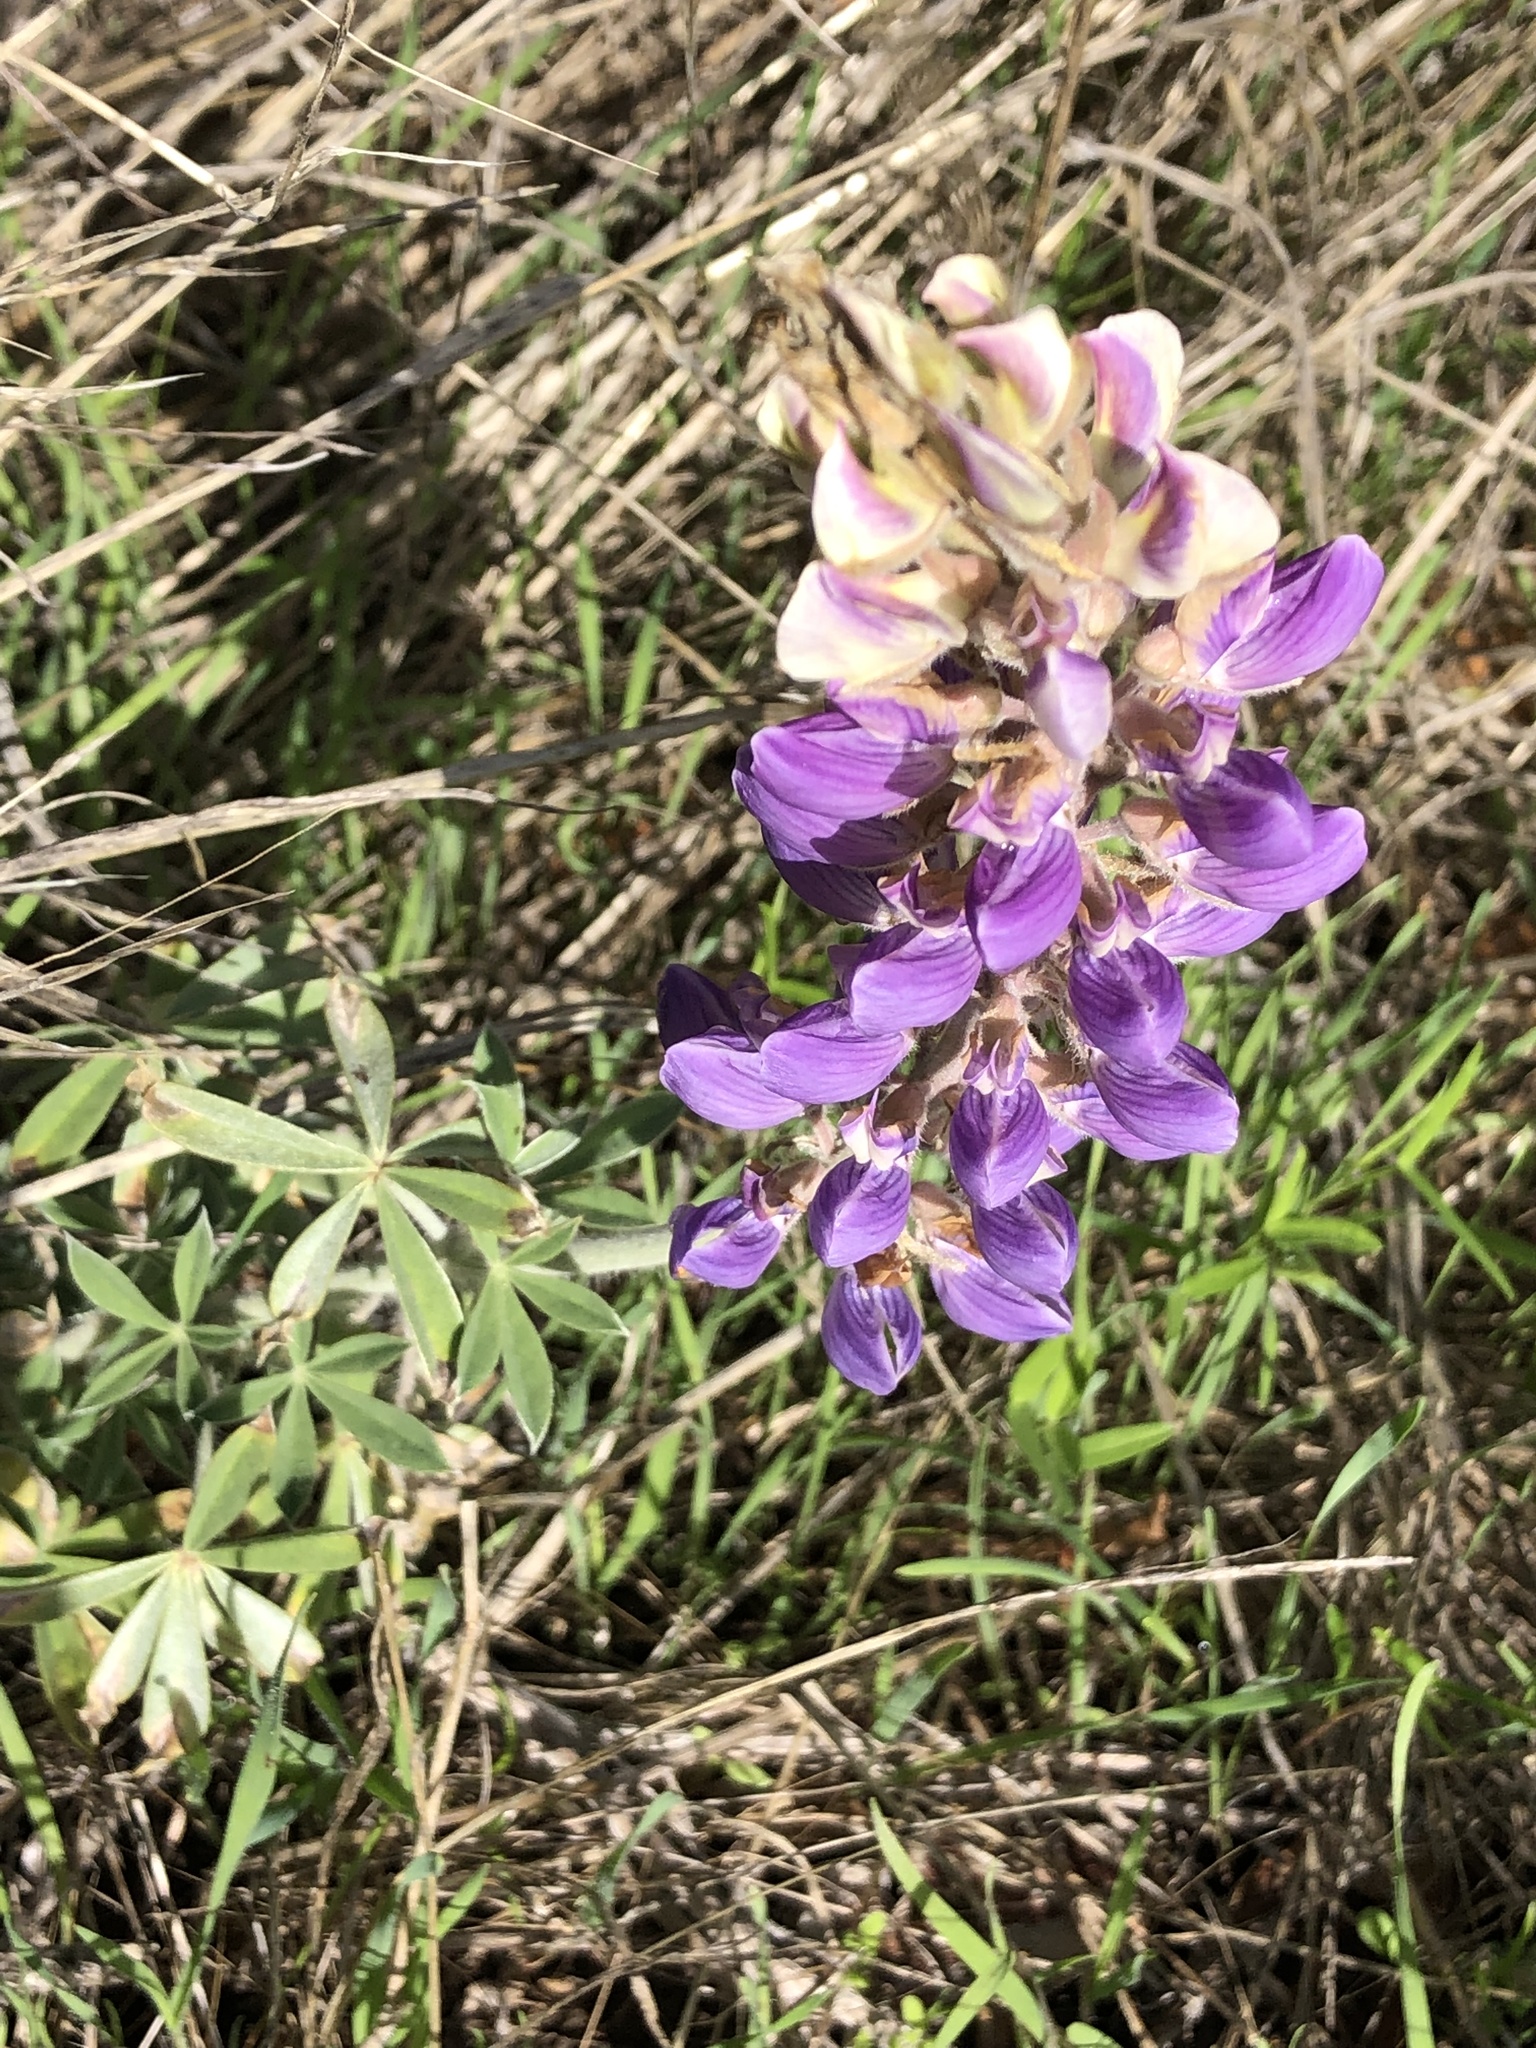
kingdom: Plantae
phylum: Tracheophyta
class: Magnoliopsida
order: Fabales
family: Fabaceae
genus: Lupinus
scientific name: Lupinus formosus
